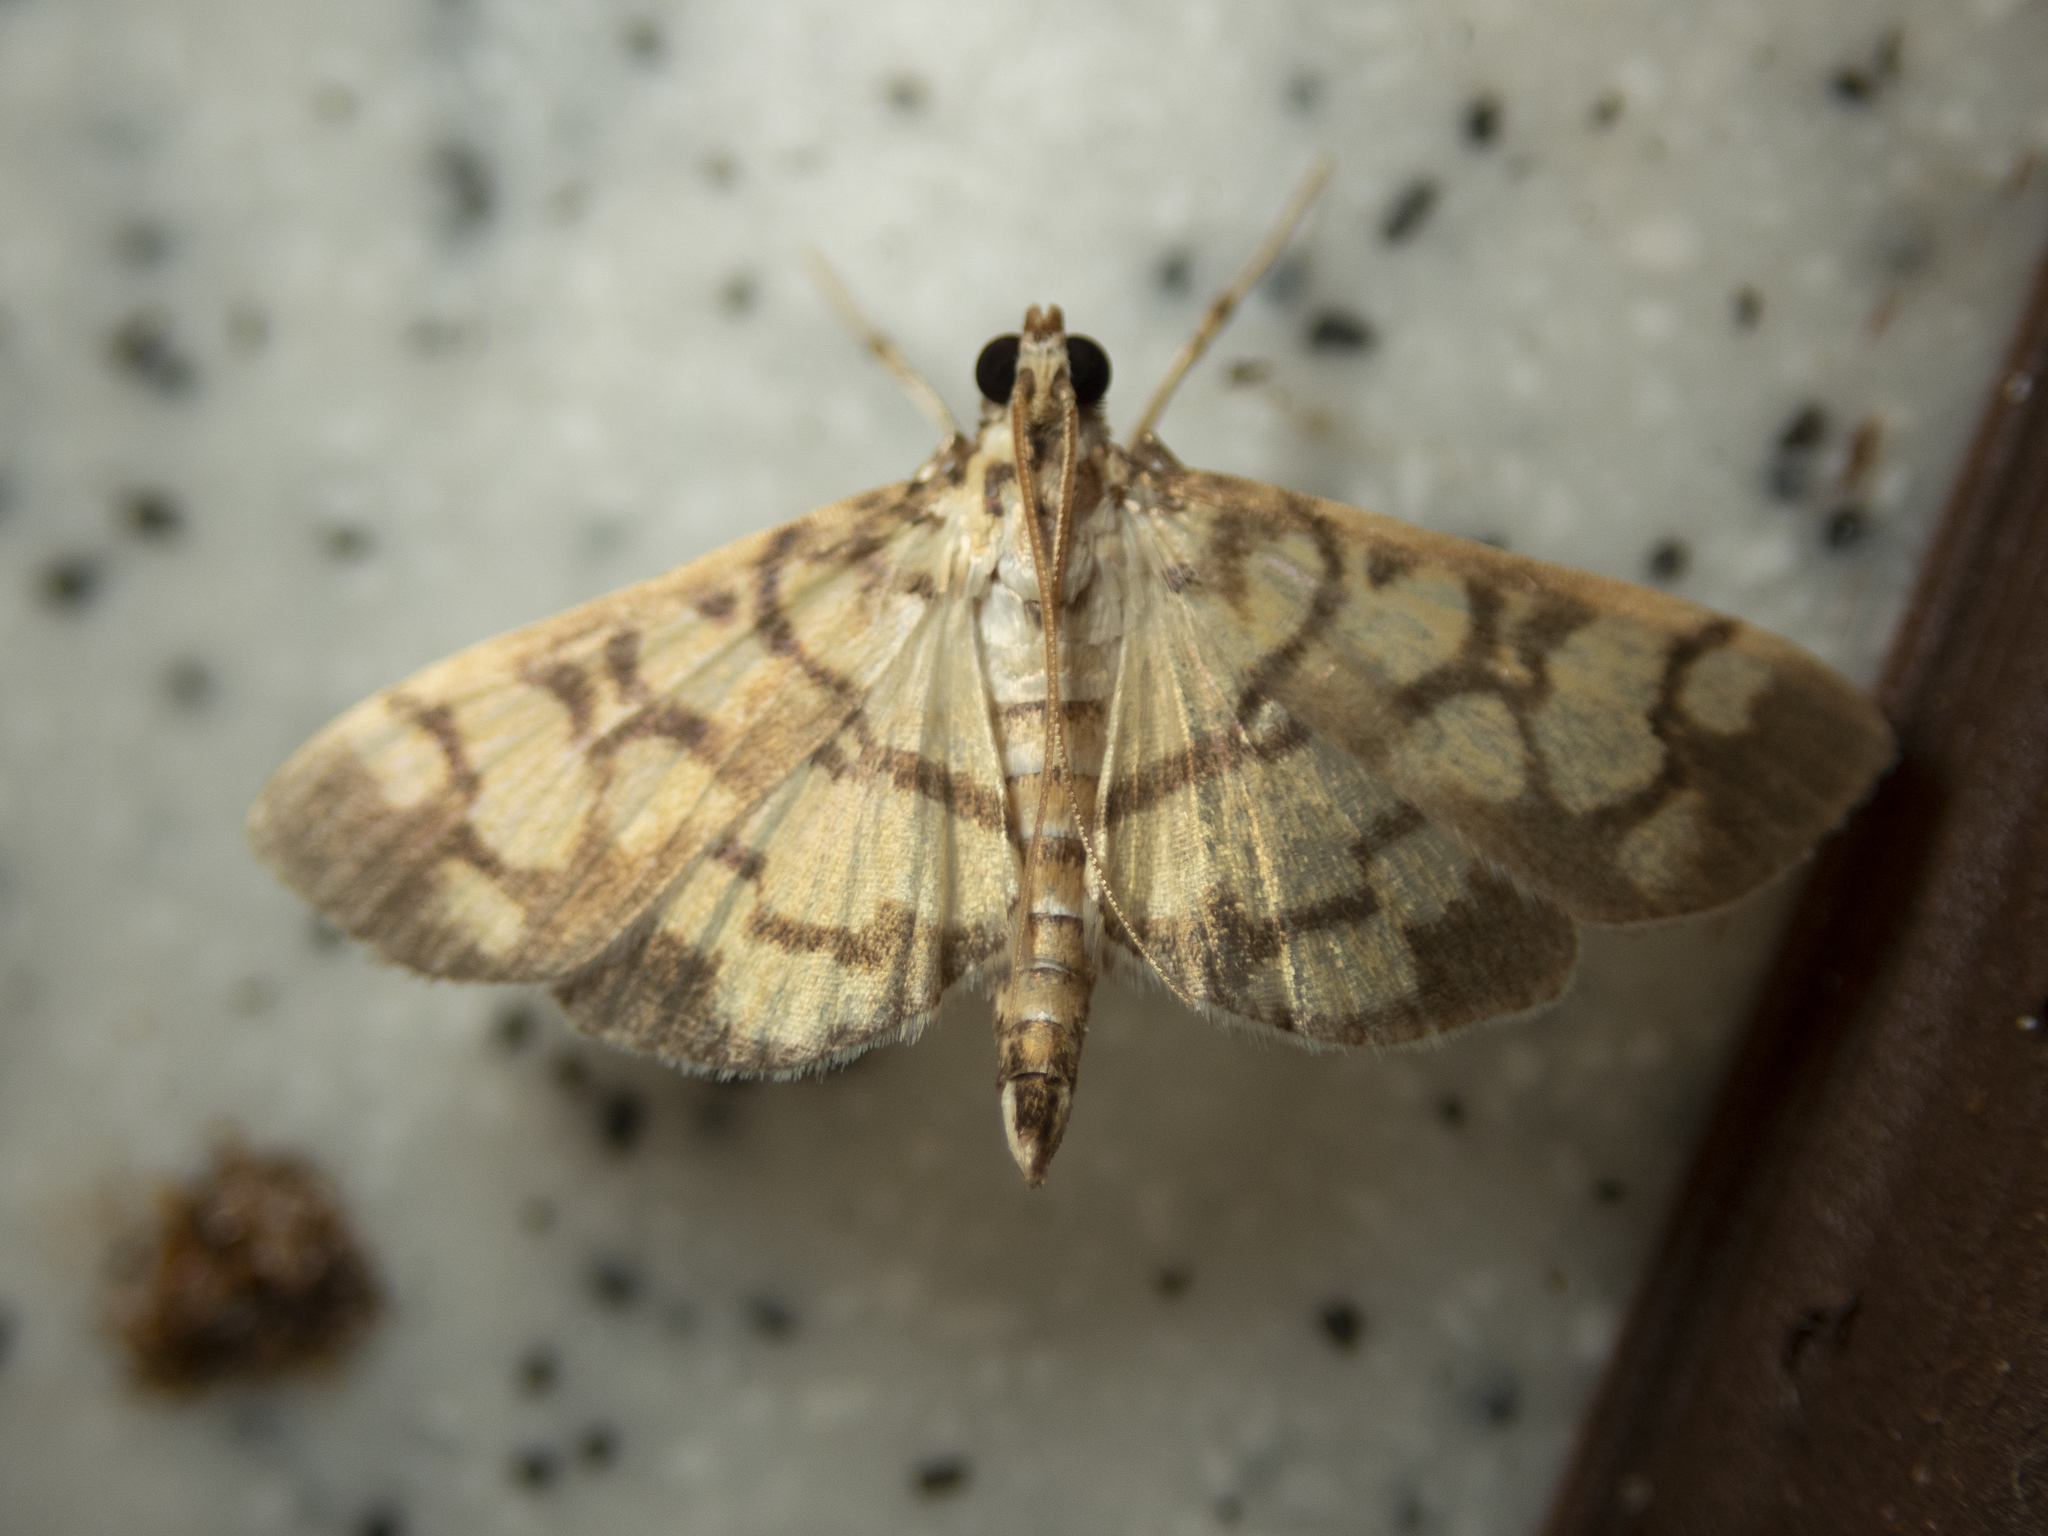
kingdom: Animalia
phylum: Arthropoda
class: Insecta
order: Lepidoptera
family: Crambidae
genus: Lygropia
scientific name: Lygropia distorta
